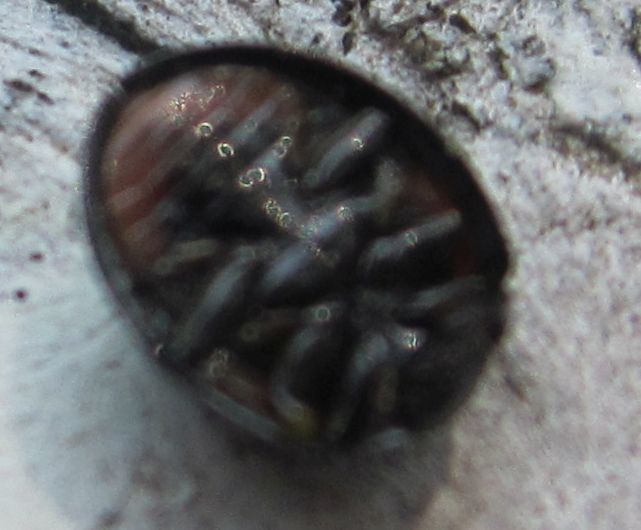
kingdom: Animalia
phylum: Arthropoda
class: Insecta
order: Coleoptera
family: Coccinellidae
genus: Brumus
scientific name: Brumus quadripustulatus
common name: Ladybird beetle
